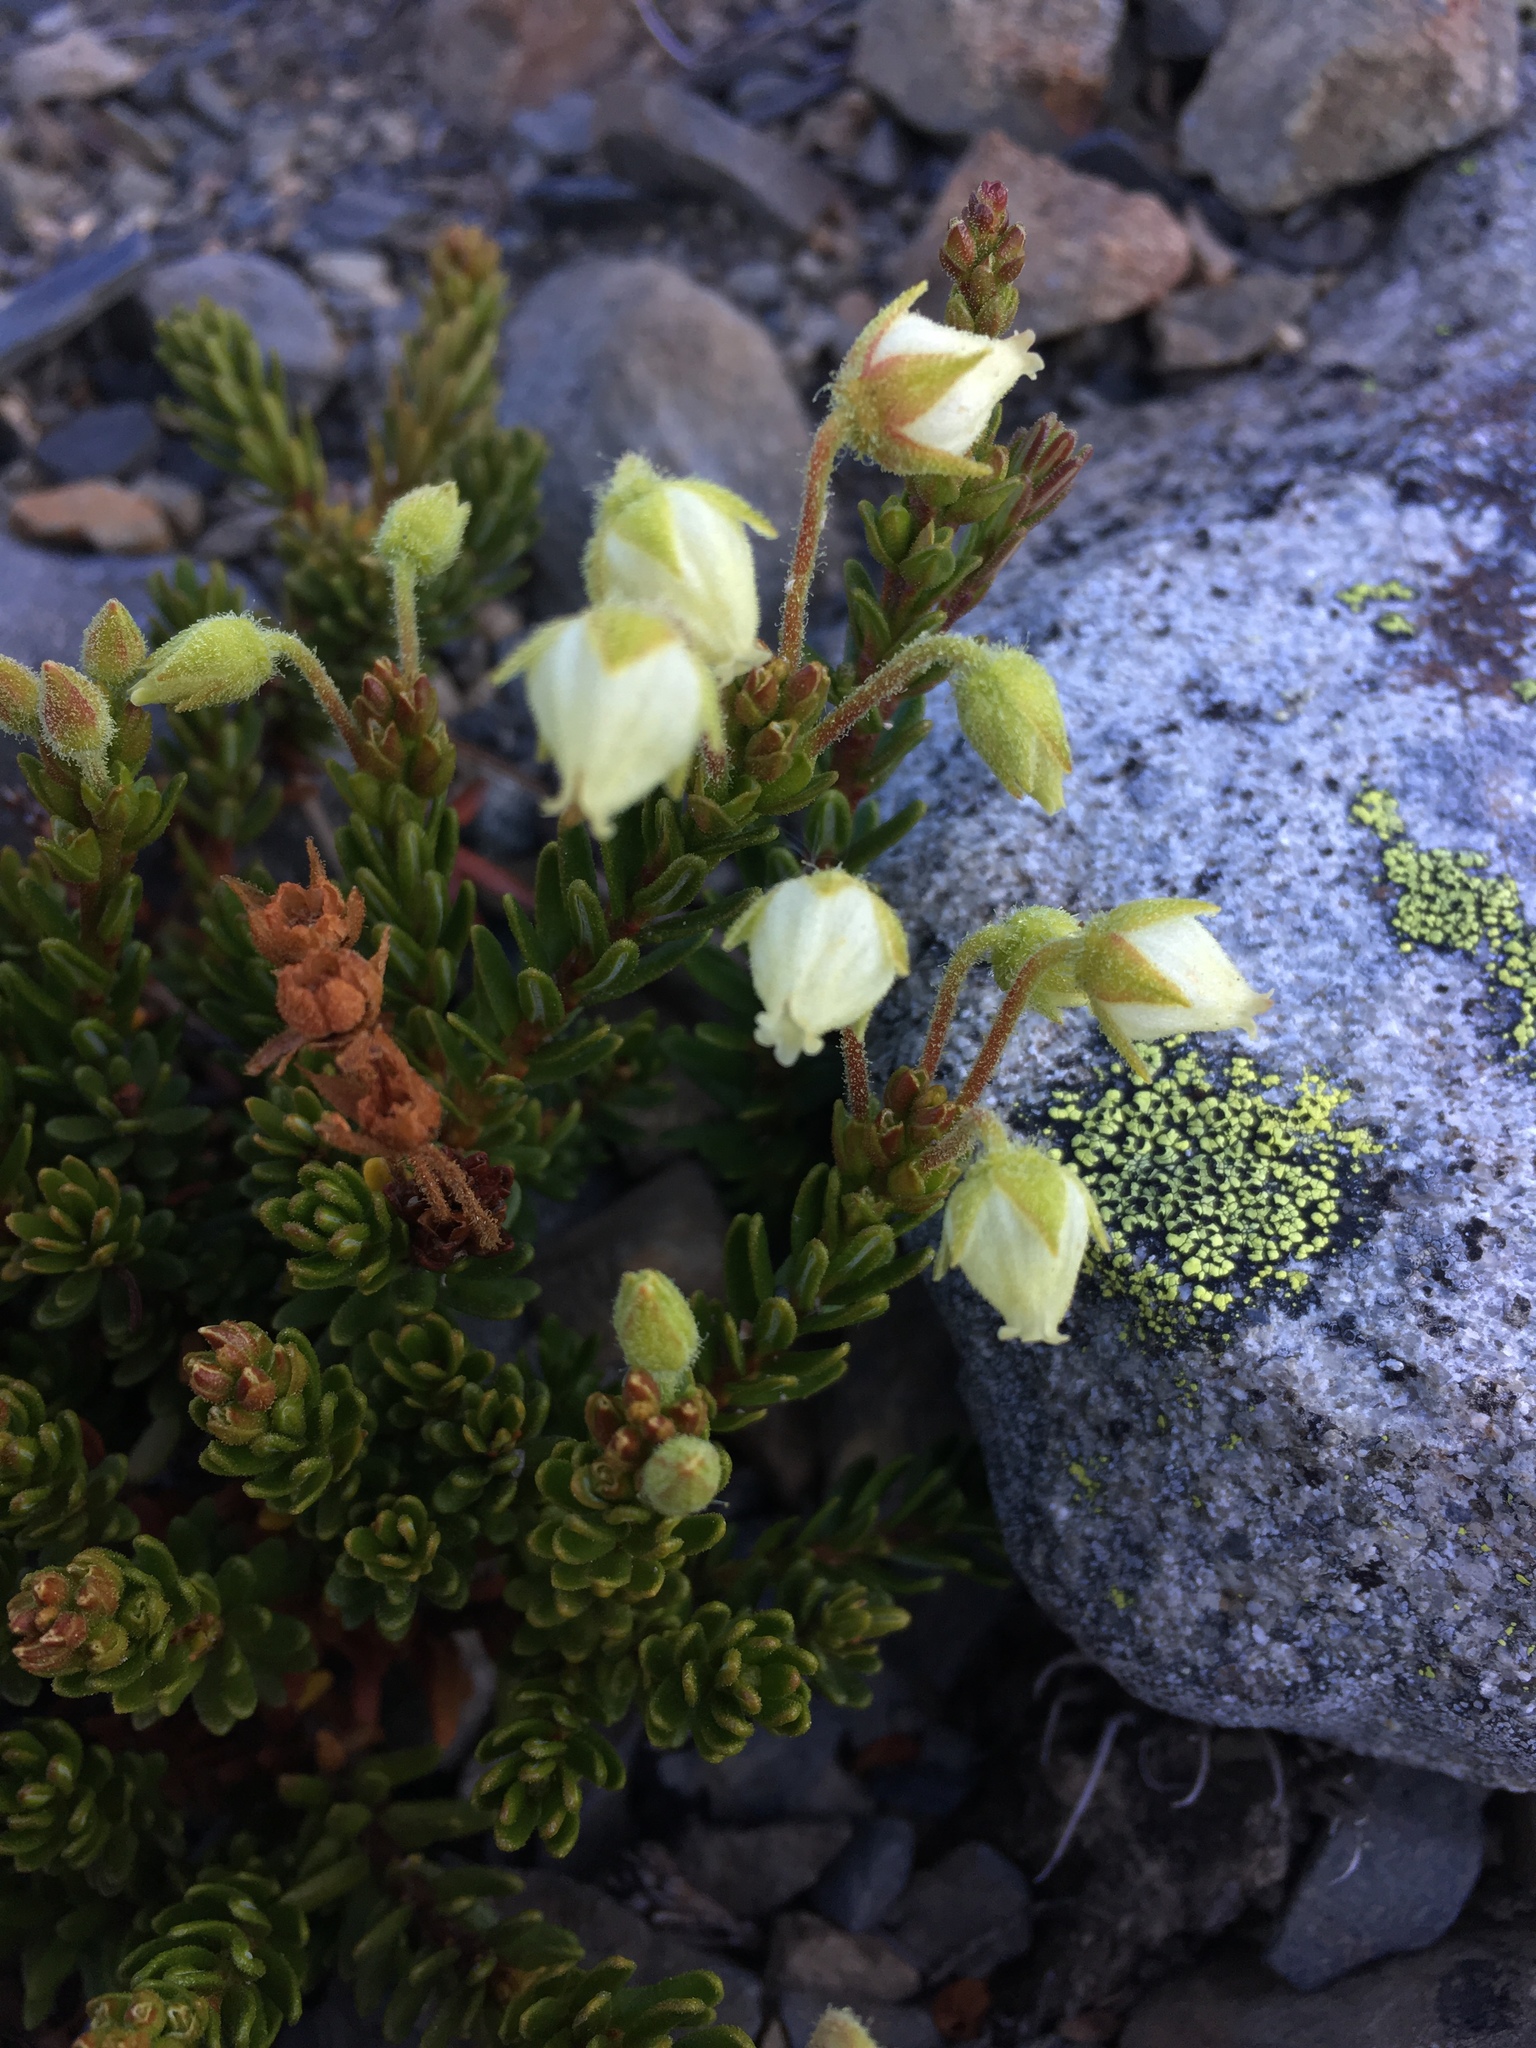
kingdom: Plantae
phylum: Tracheophyta
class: Magnoliopsida
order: Ericales
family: Ericaceae
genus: Phyllodoce
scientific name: Phyllodoce glanduliflora
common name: Cream mountain heather
